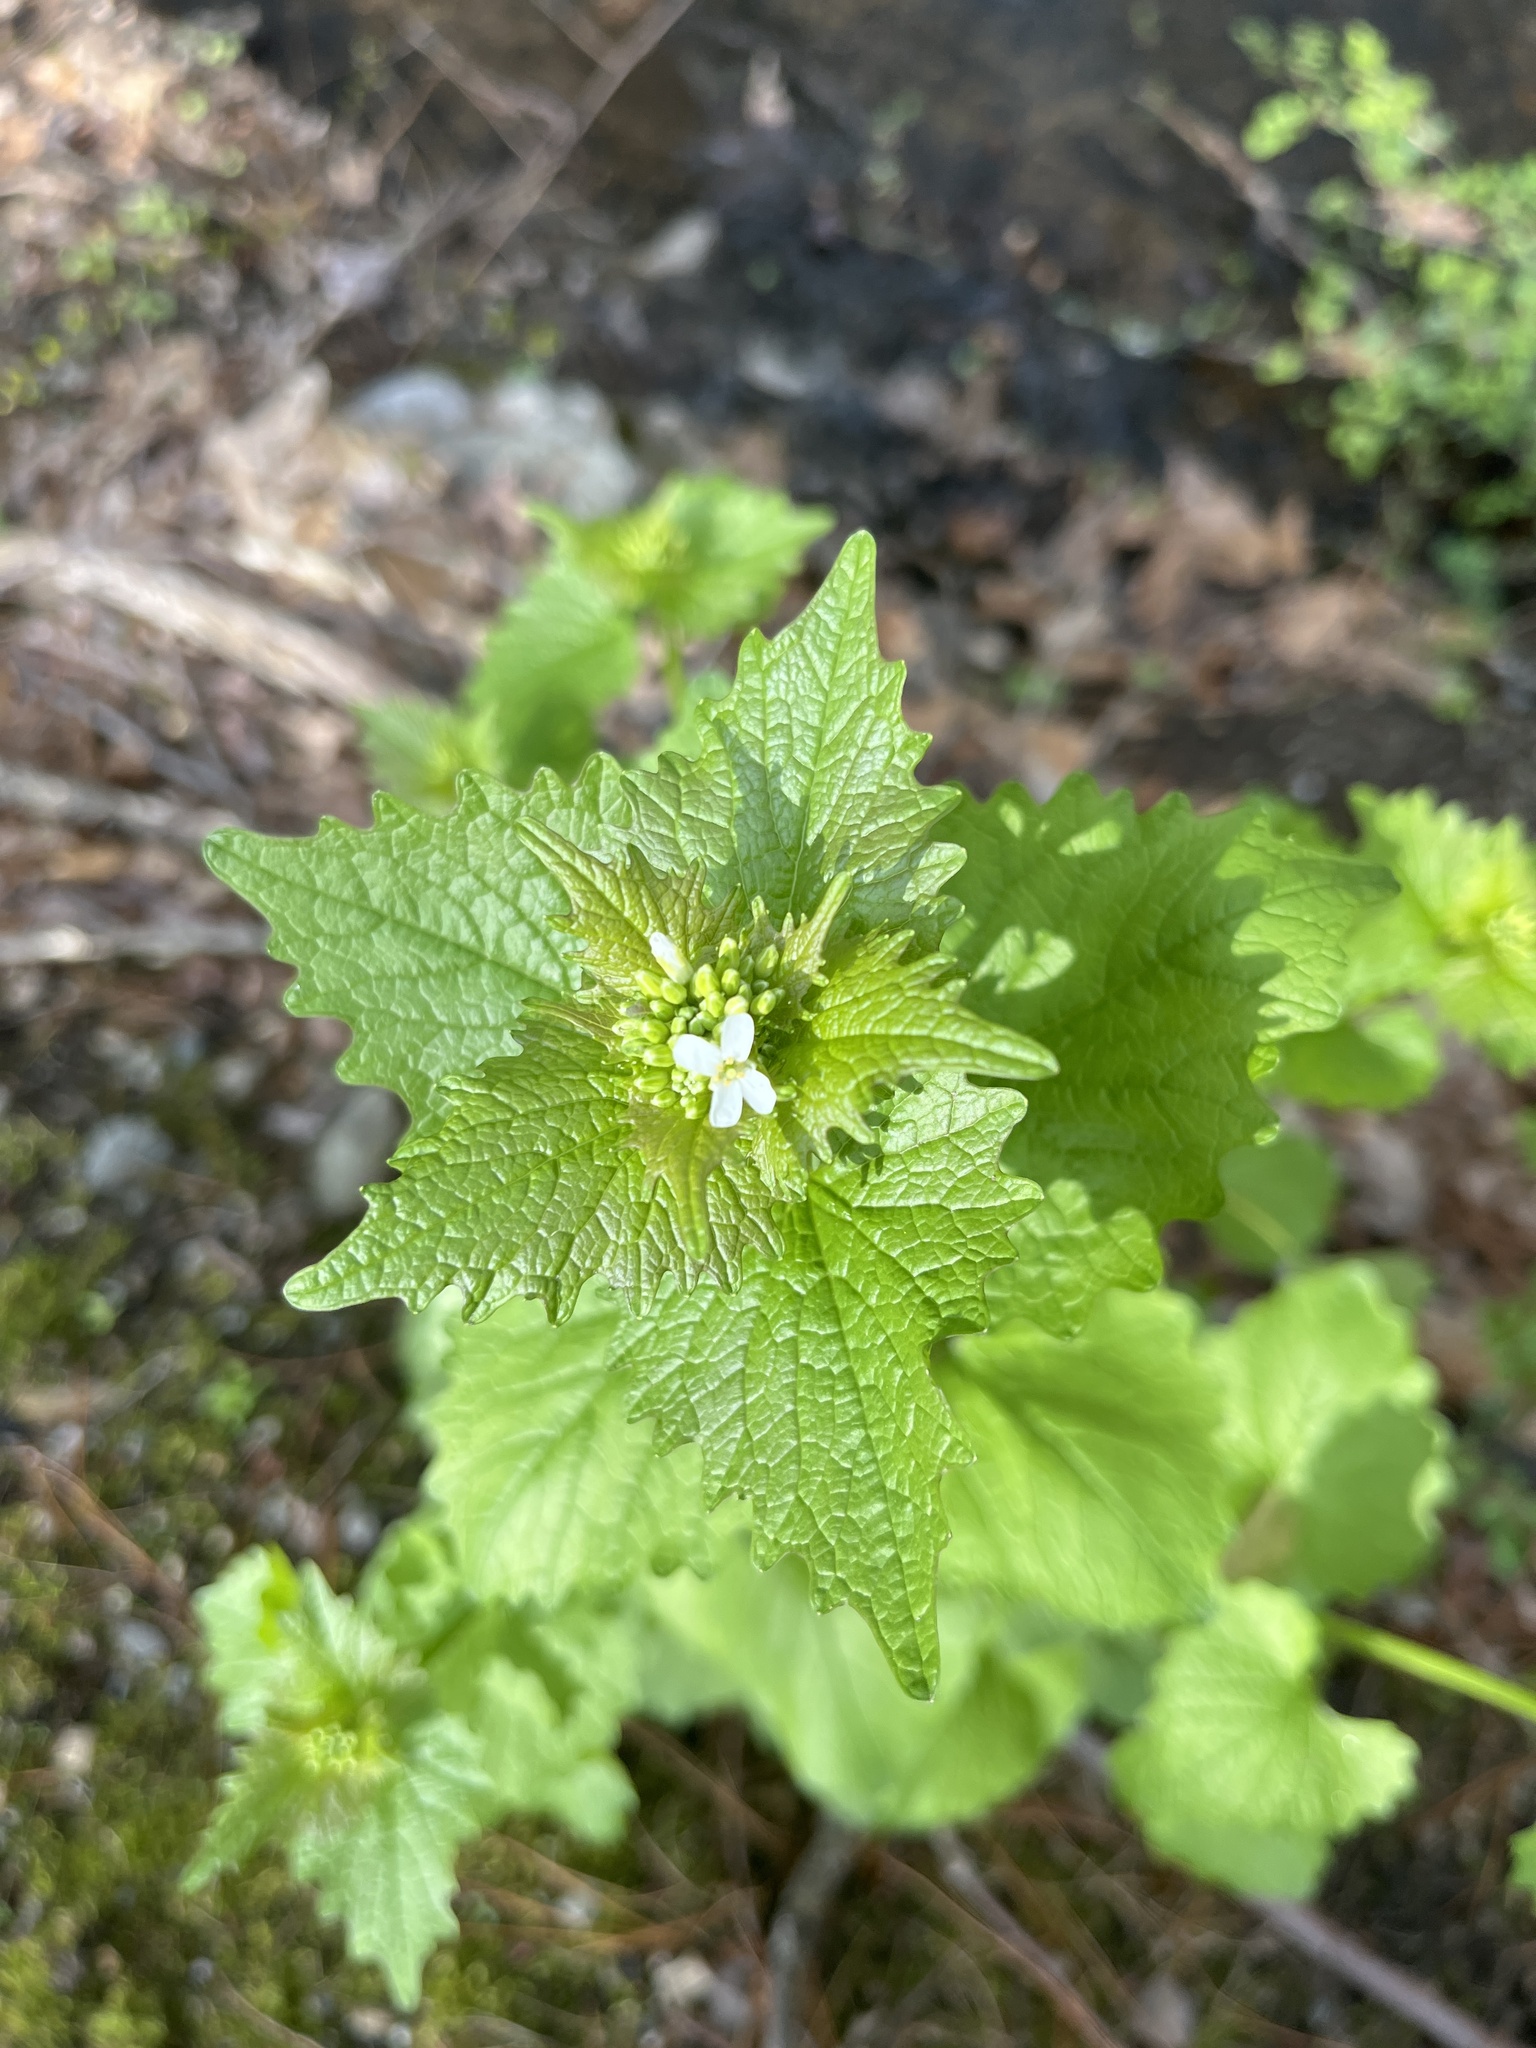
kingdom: Plantae
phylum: Tracheophyta
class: Magnoliopsida
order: Brassicales
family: Brassicaceae
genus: Alliaria
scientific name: Alliaria petiolata
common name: Garlic mustard
